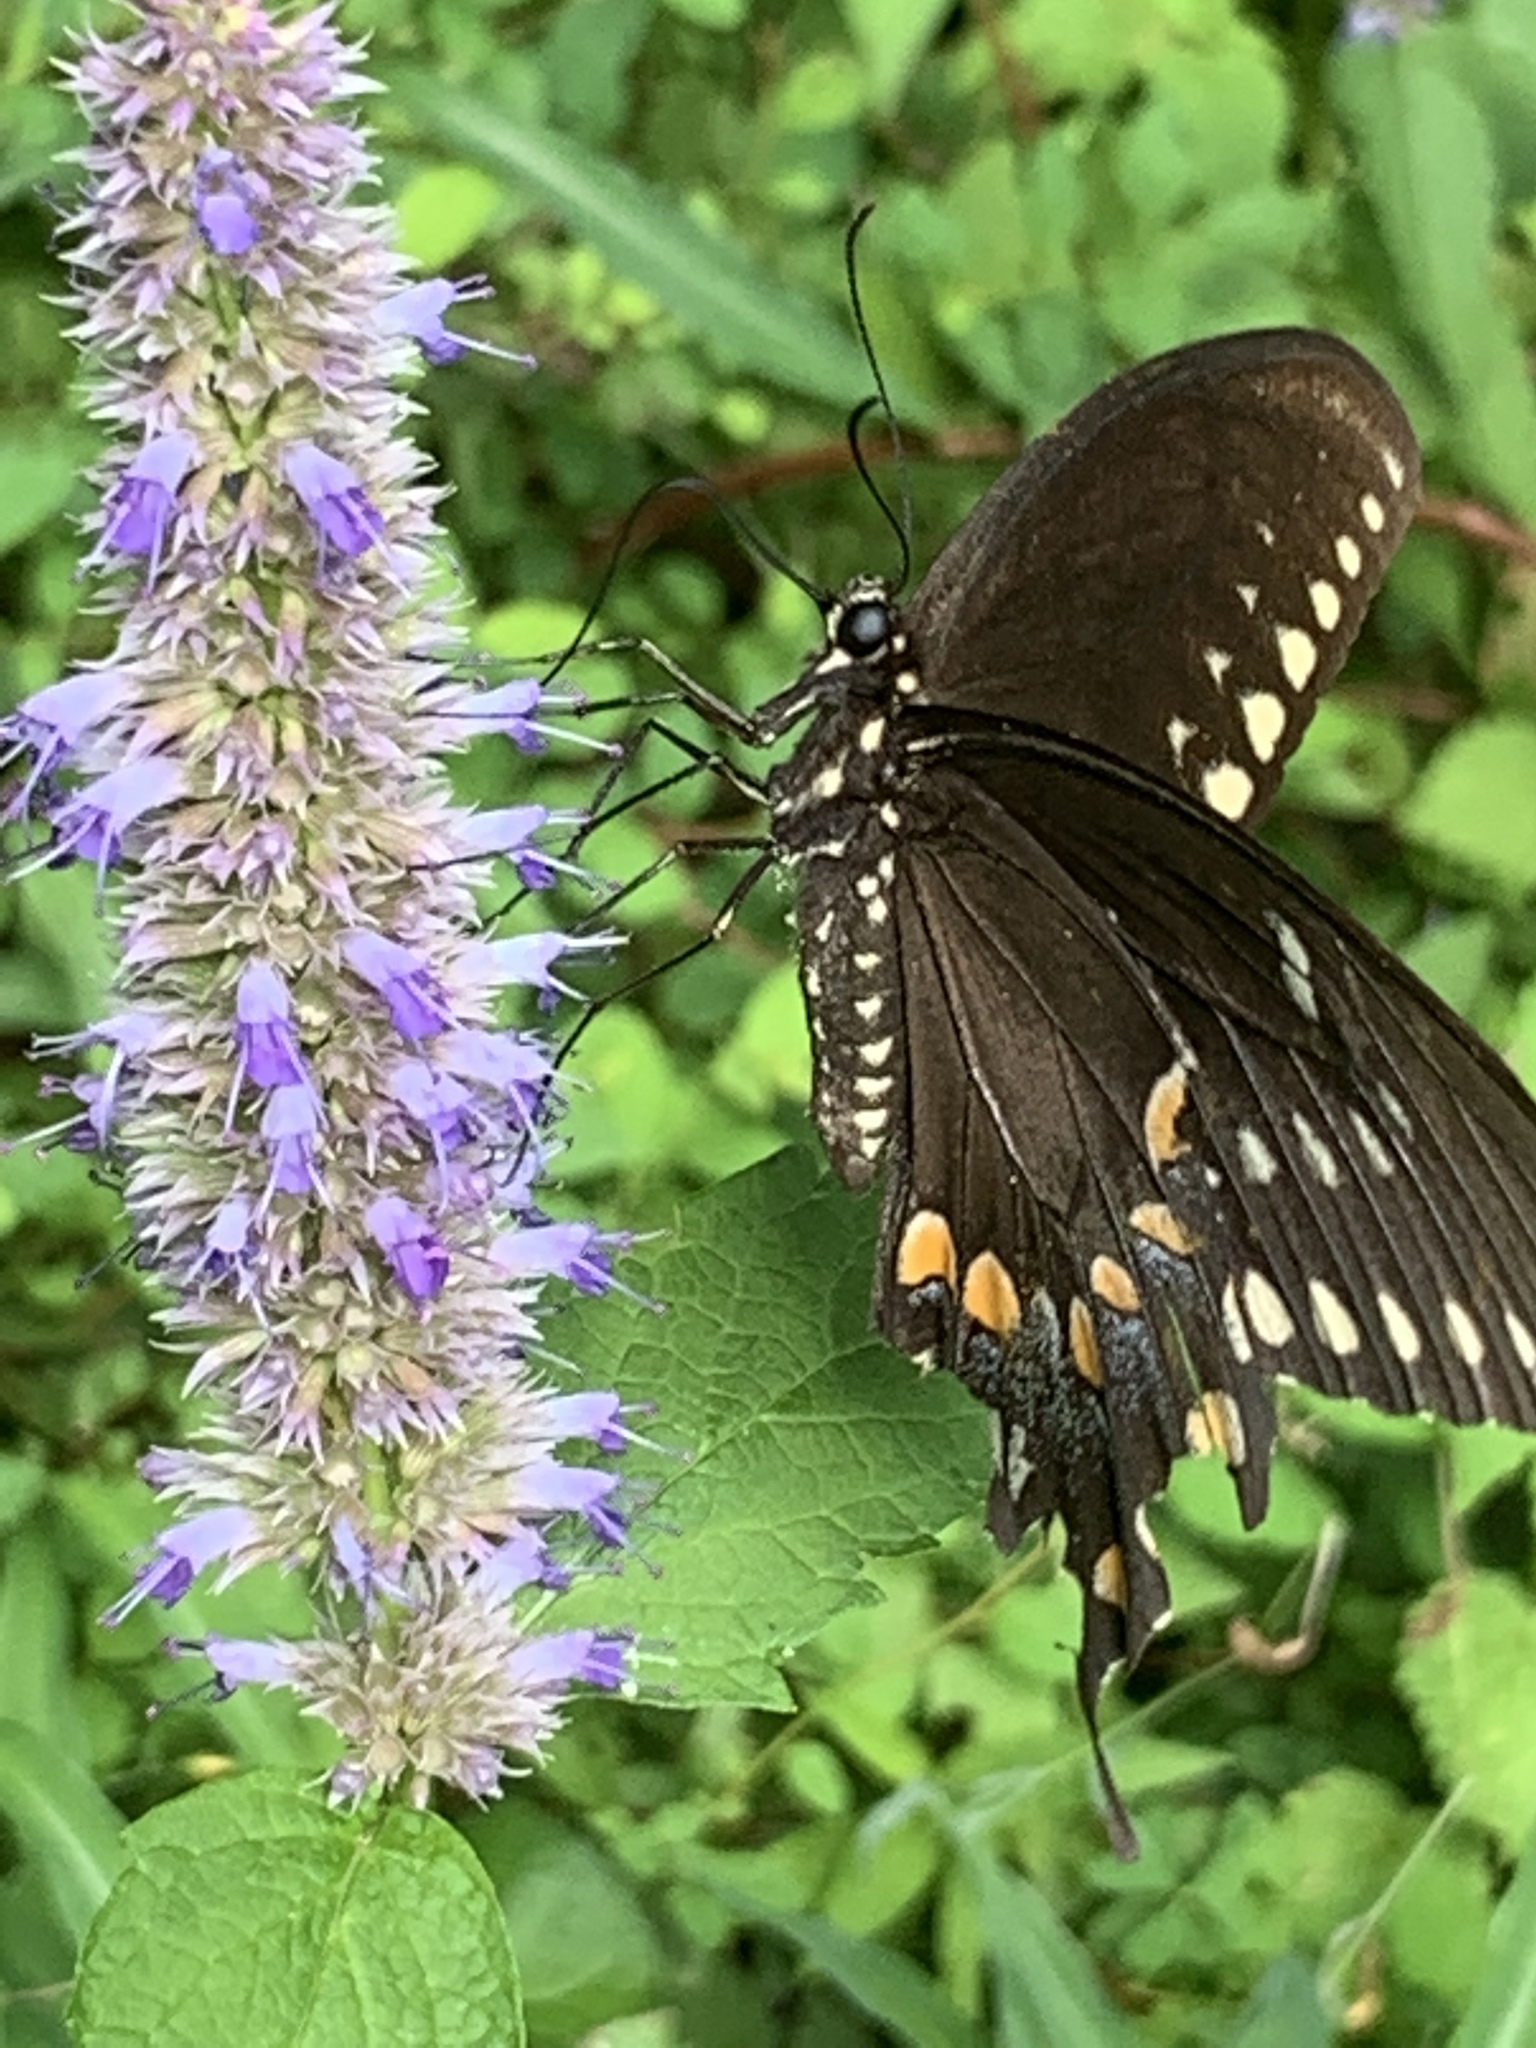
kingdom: Animalia
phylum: Arthropoda
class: Insecta
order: Lepidoptera
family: Papilionidae
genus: Papilio
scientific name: Papilio troilus
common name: Spicebush swallowtail
